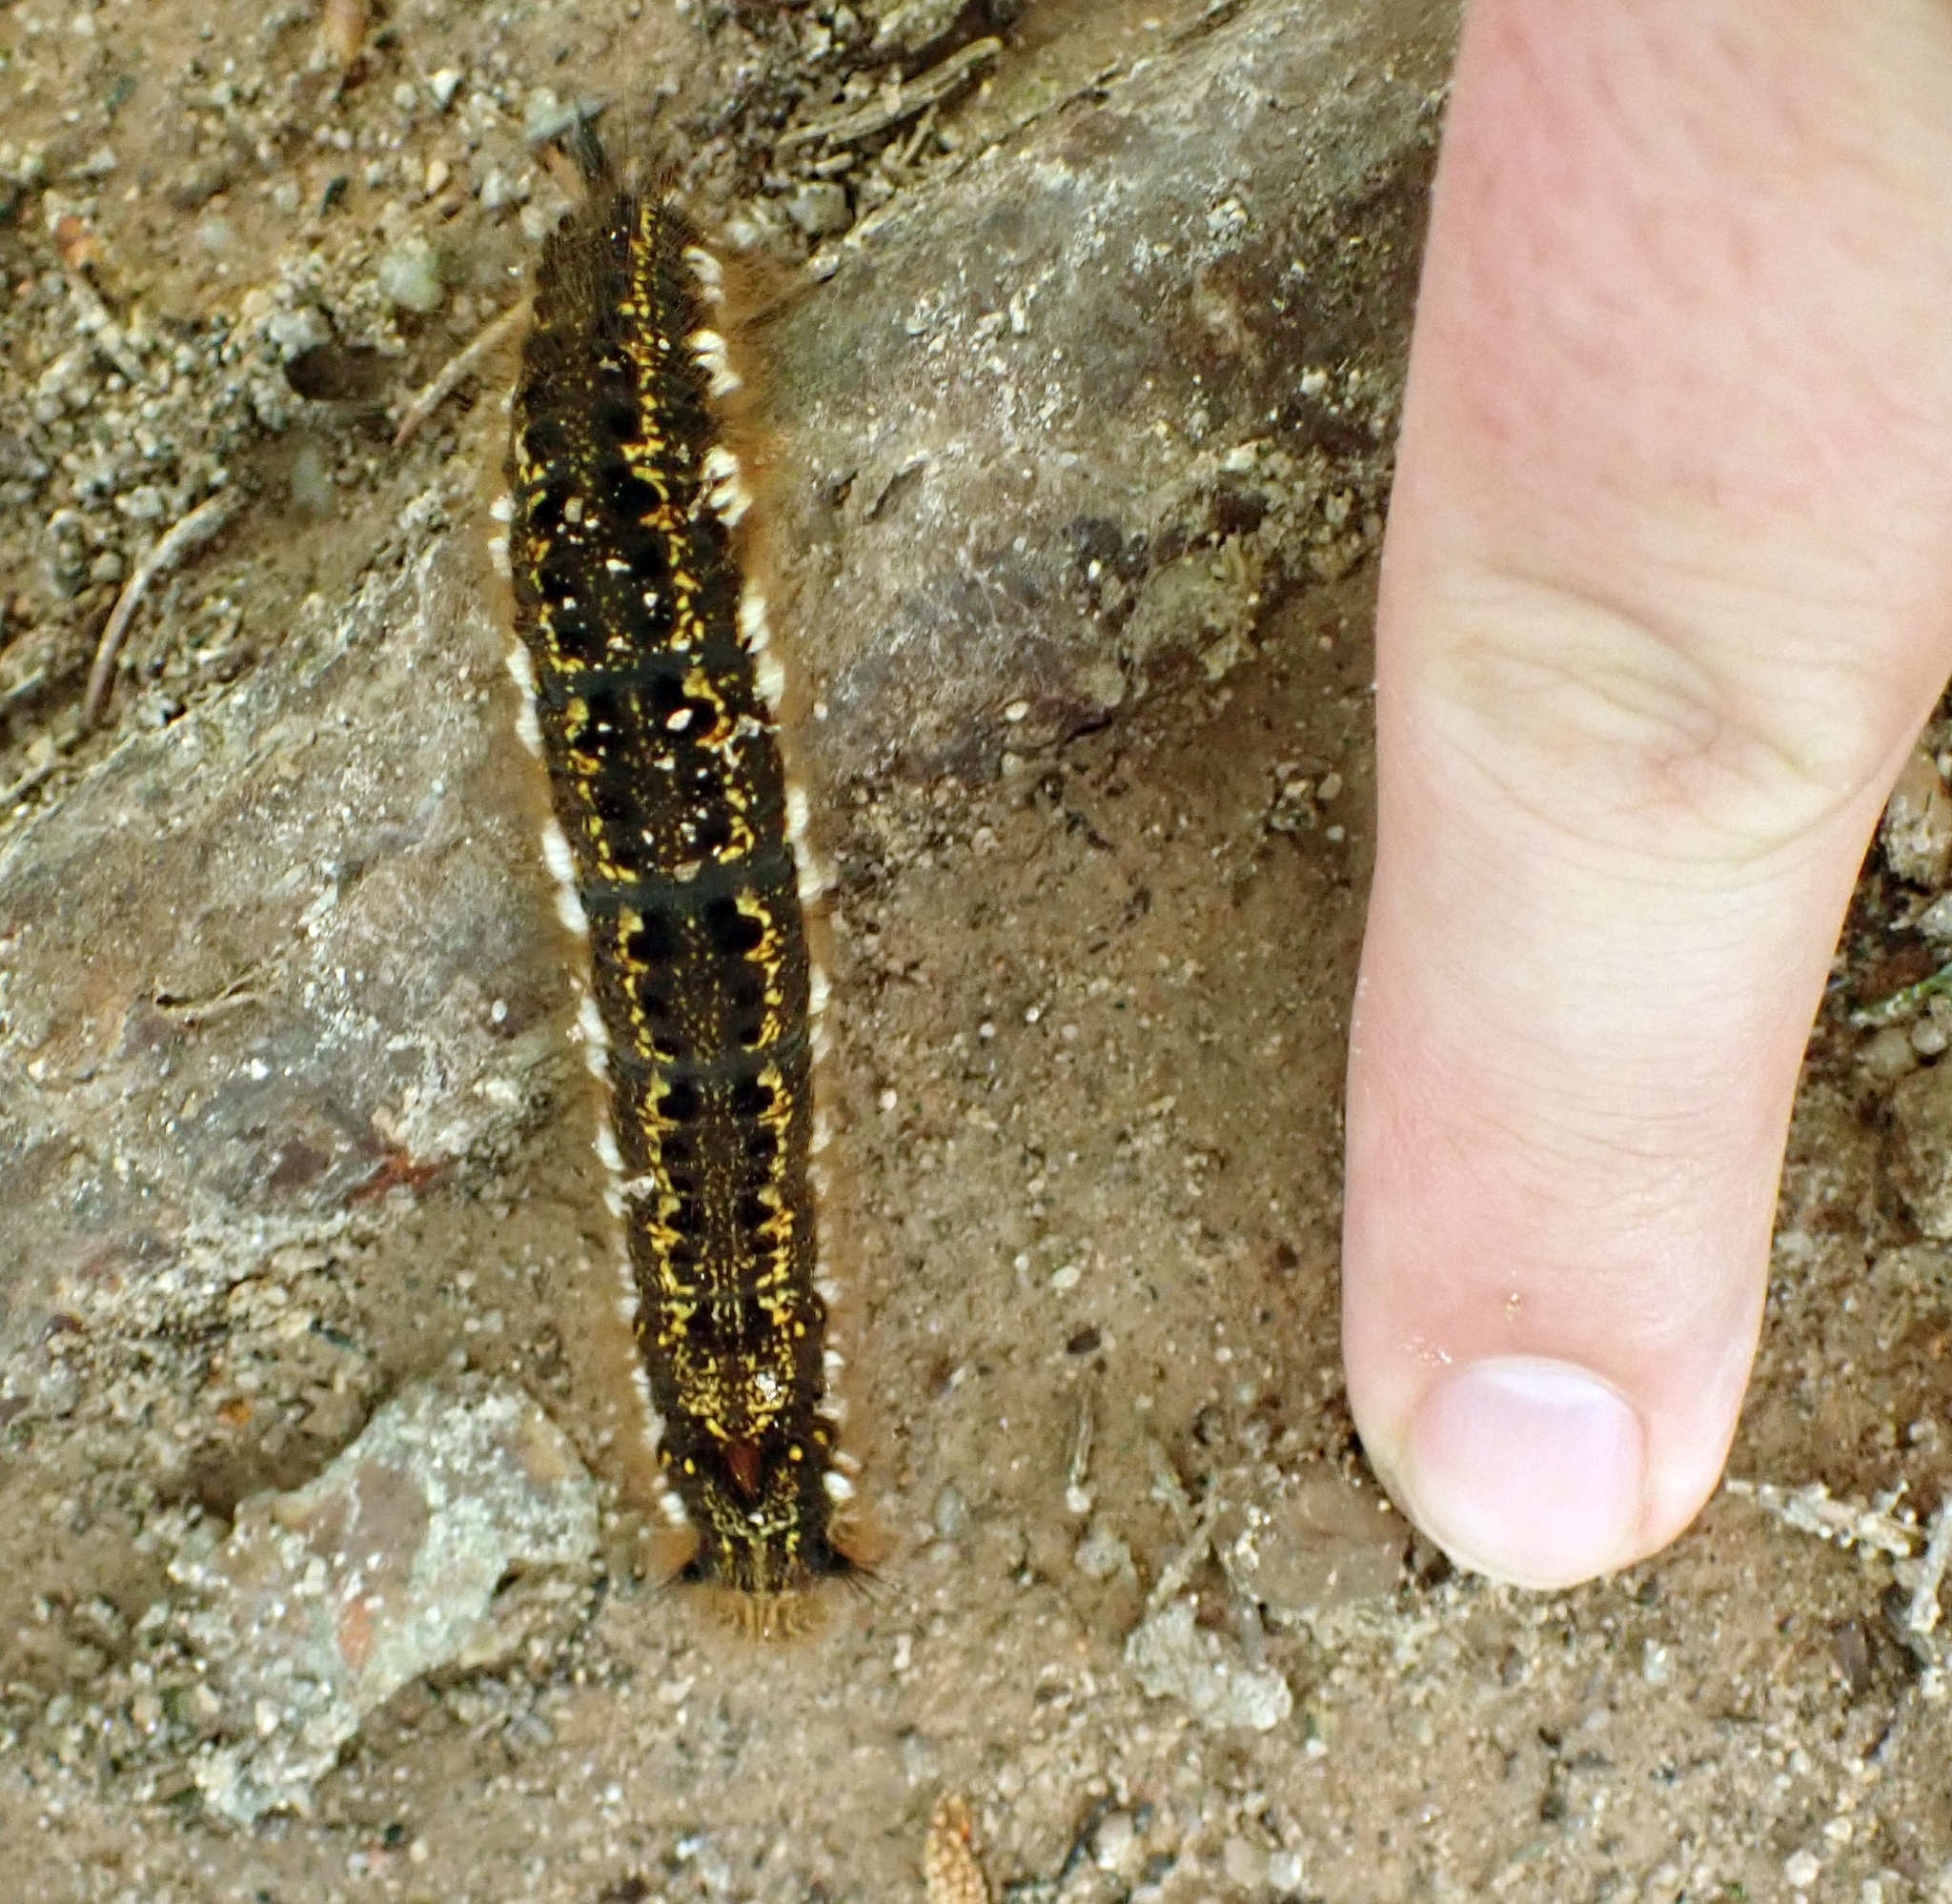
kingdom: Animalia
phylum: Arthropoda
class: Insecta
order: Lepidoptera
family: Lasiocampidae
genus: Euthrix
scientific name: Euthrix potatoria
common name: Drinker
